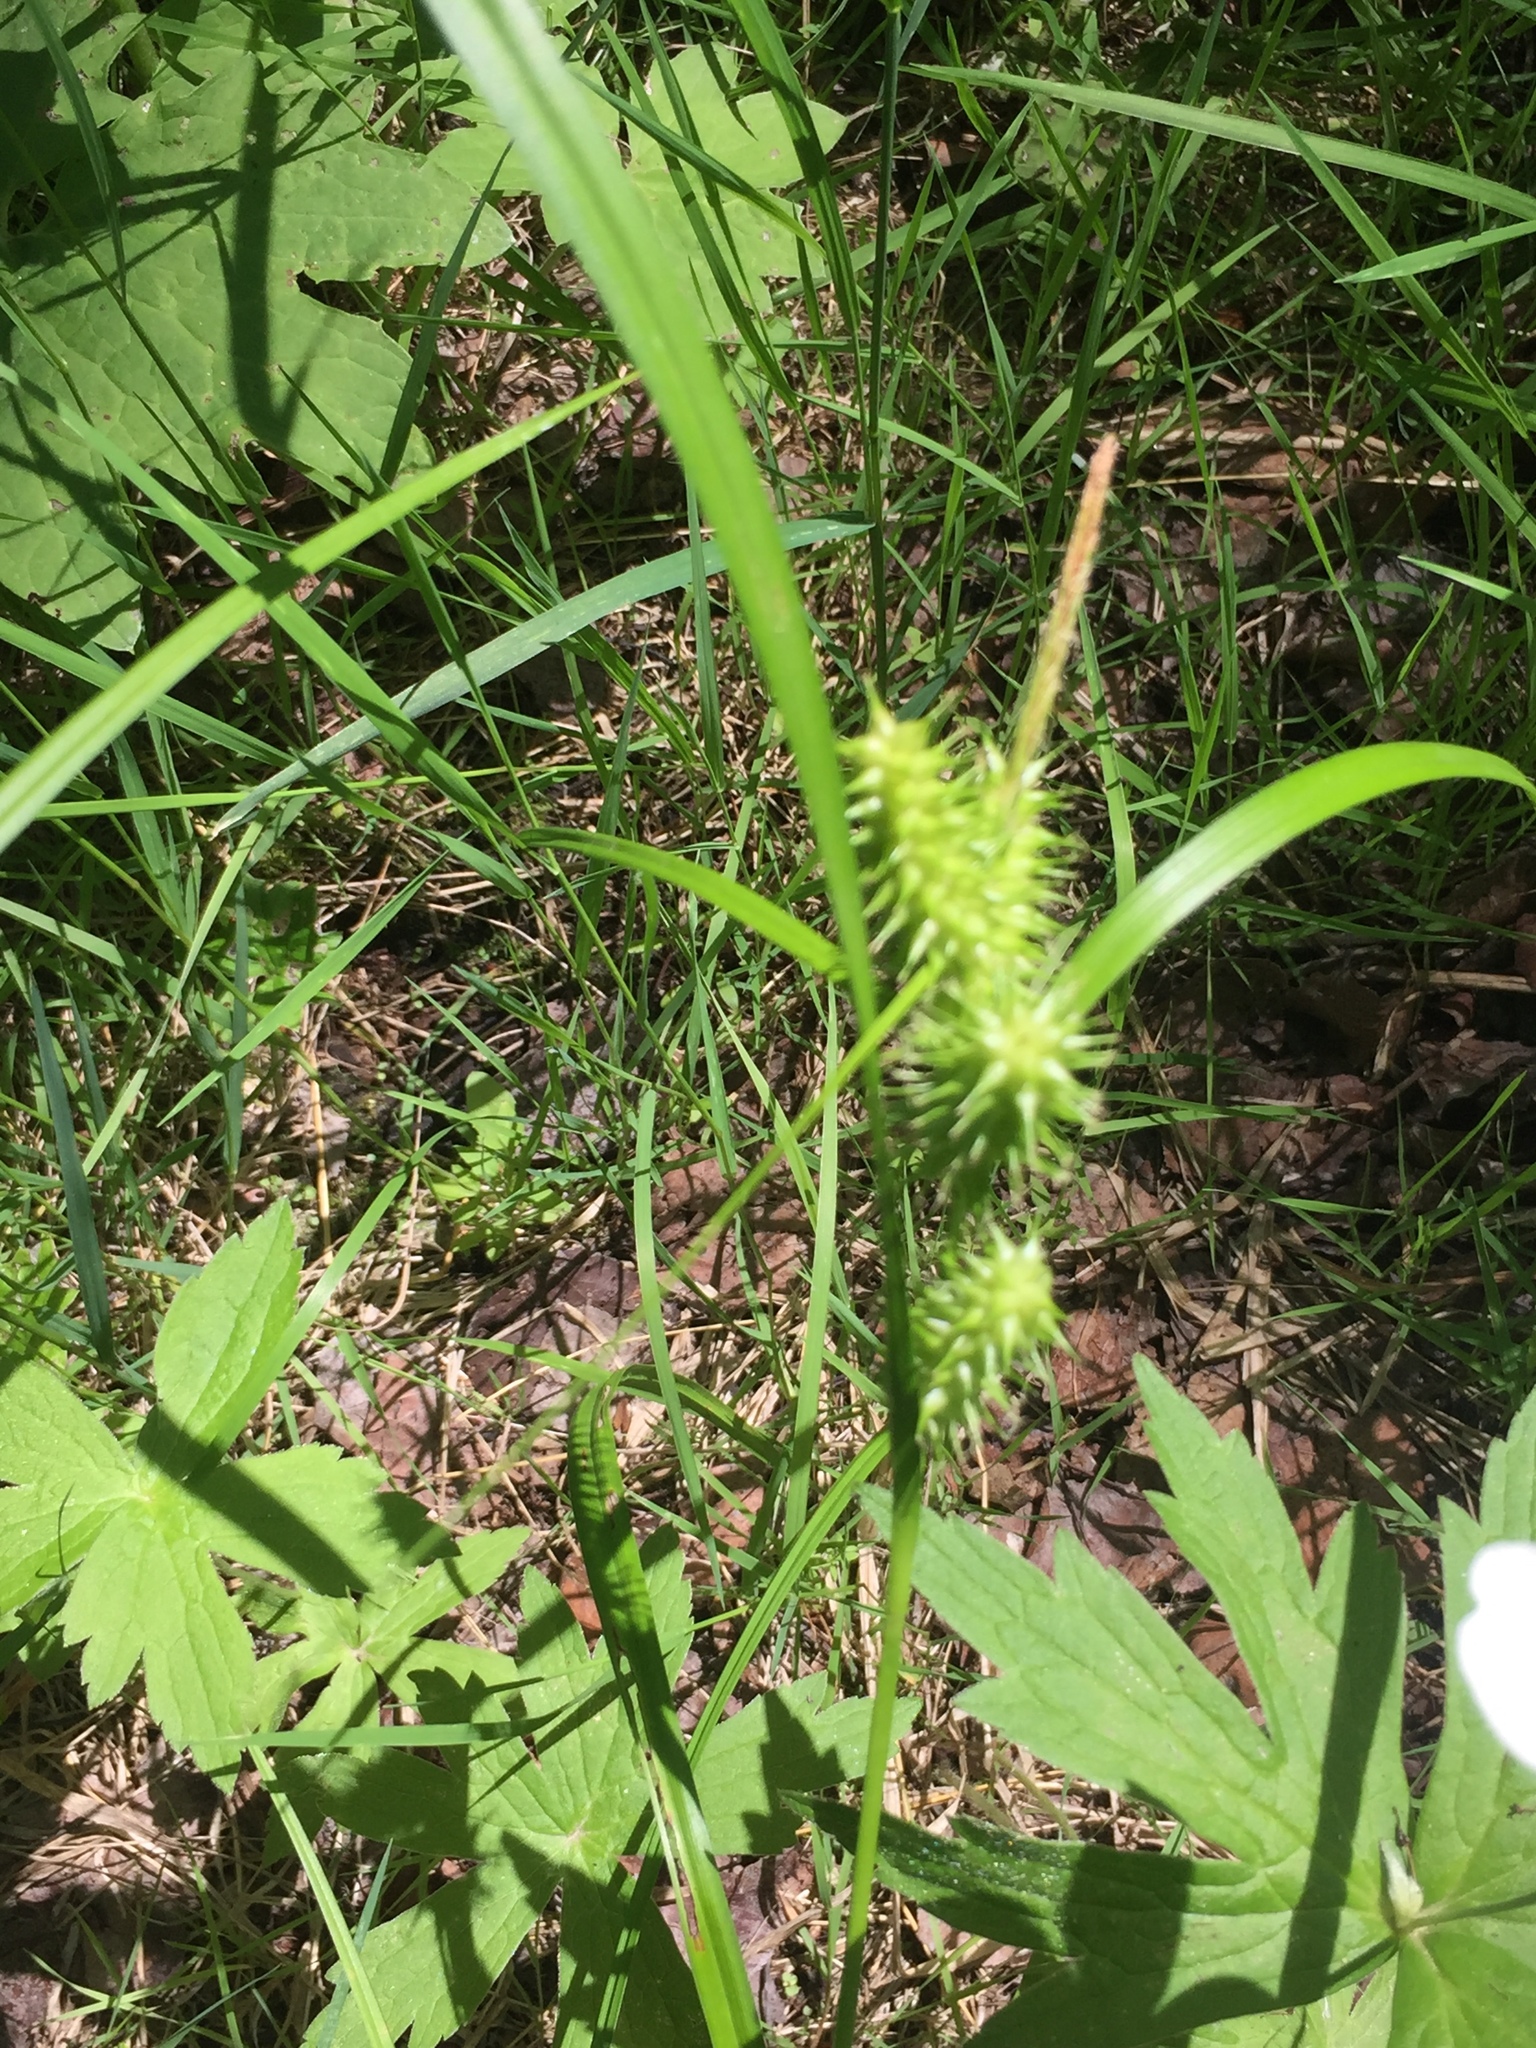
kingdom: Plantae
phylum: Tracheophyta
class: Liliopsida
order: Poales
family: Cyperaceae
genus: Carex
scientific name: Carex retrorsa
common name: Knot-sheath sedge
